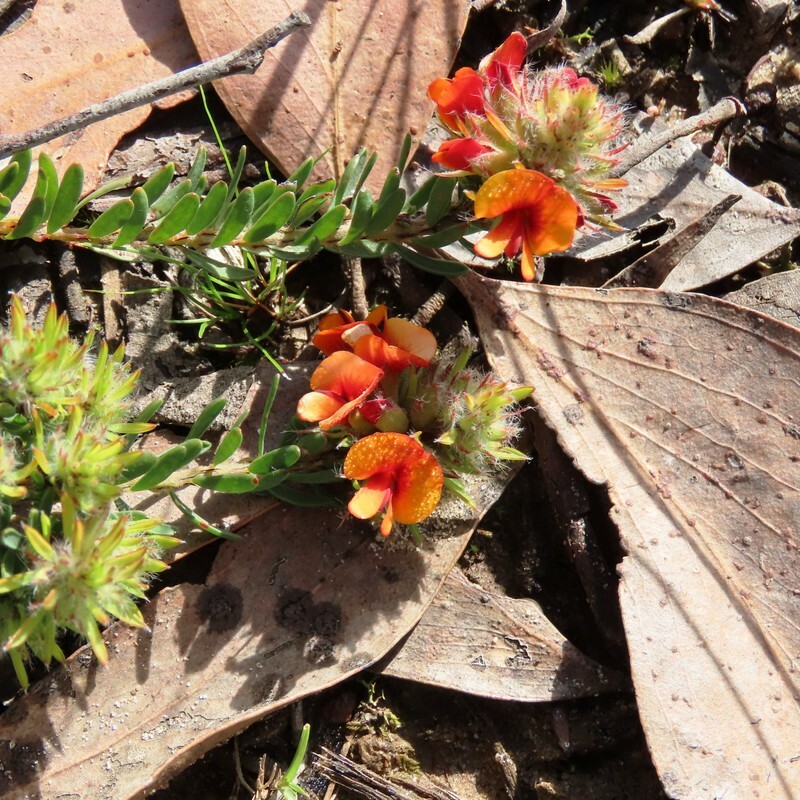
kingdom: Plantae
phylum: Tracheophyta
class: Magnoliopsida
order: Fabales
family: Fabaceae
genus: Pultenaea
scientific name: Pultenaea humilis
